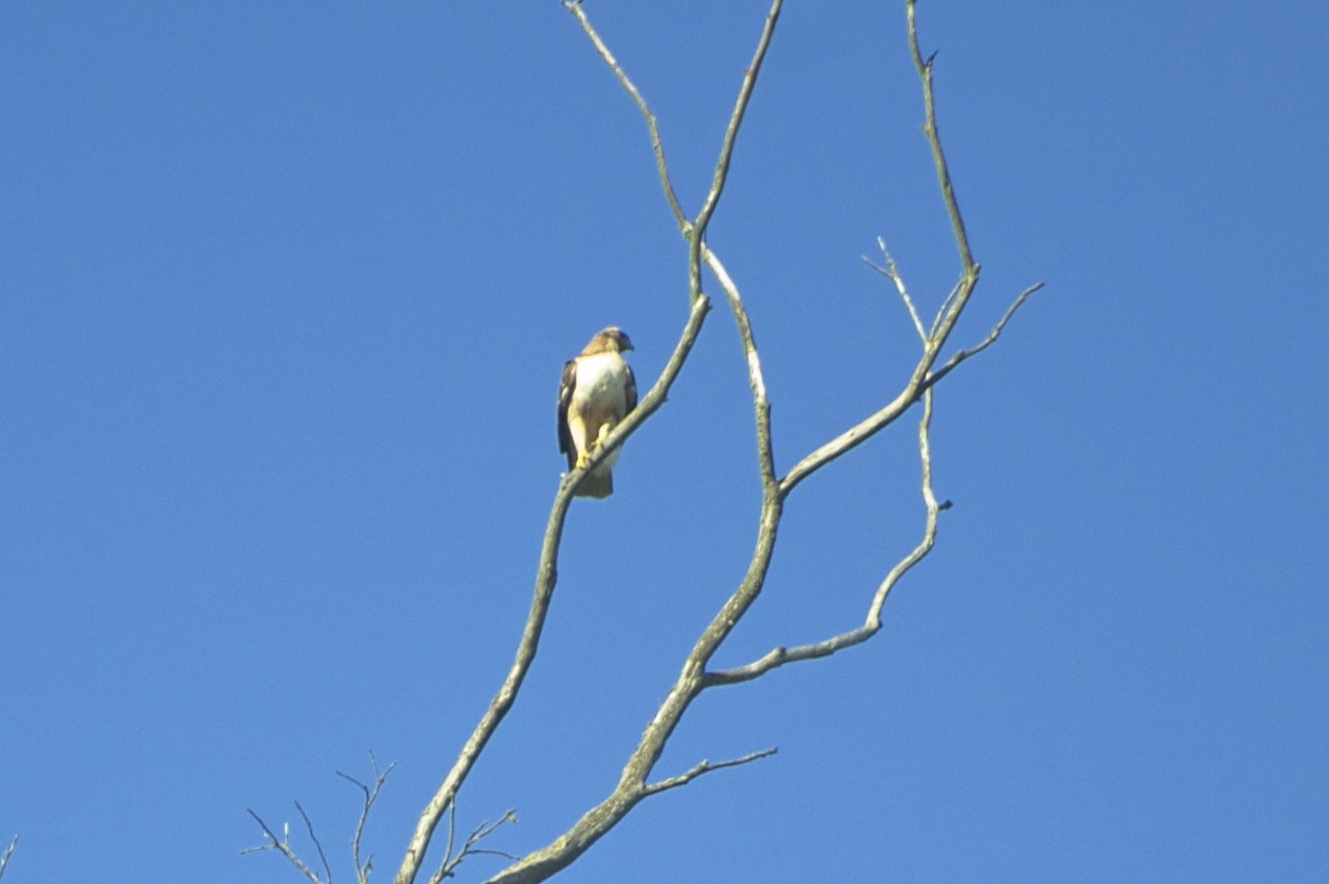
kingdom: Animalia
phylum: Chordata
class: Aves
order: Accipitriformes
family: Accipitridae
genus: Buteo
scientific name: Buteo jamaicensis
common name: Red-tailed hawk
